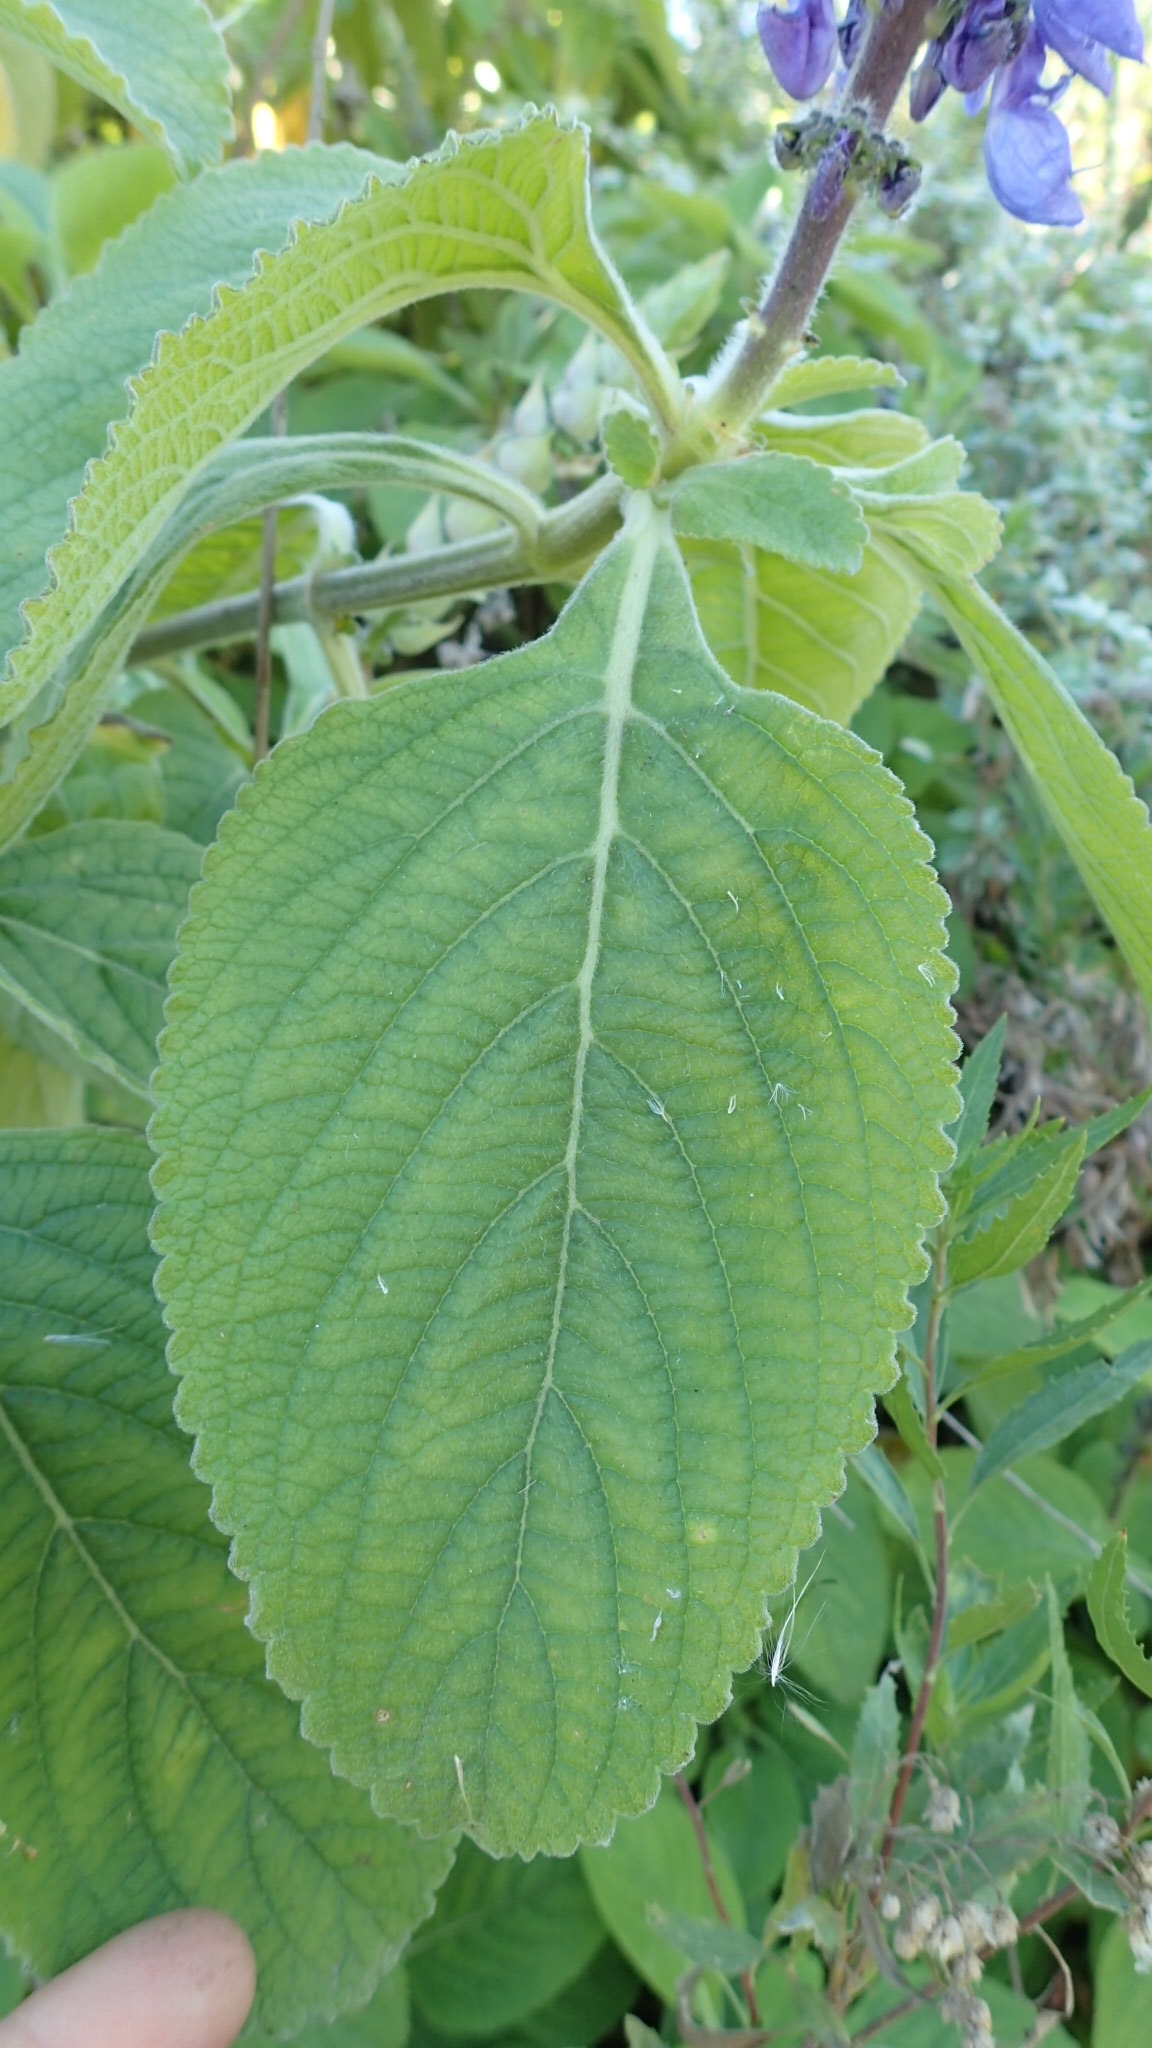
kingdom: Plantae
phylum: Tracheophyta
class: Magnoliopsida
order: Lamiales
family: Lamiaceae
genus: Coleus
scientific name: Coleus barbatus
